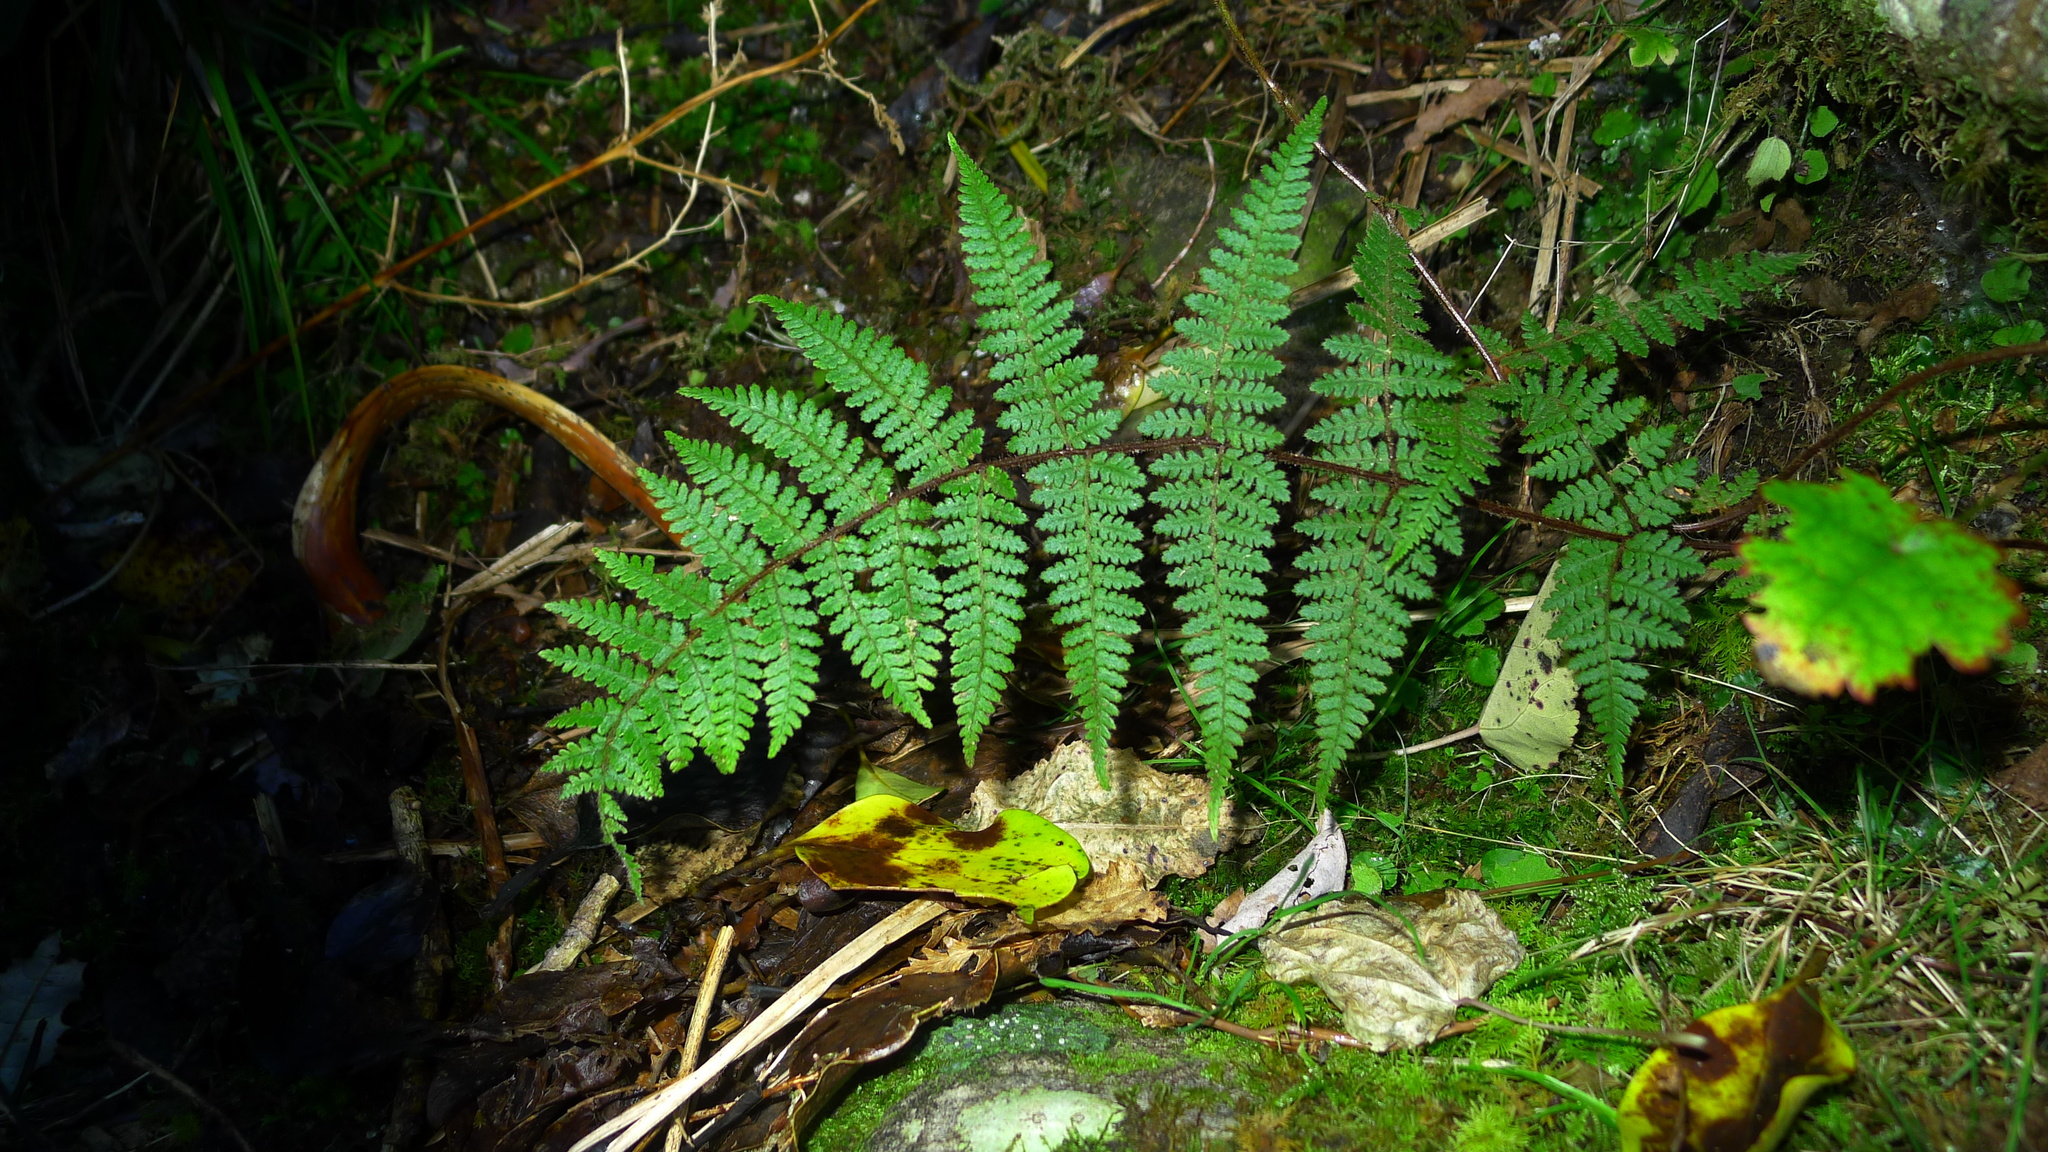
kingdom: Plantae
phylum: Tracheophyta
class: Polypodiopsida
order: Polypodiales
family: Dennstaedtiaceae
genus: Hypolepis
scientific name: Hypolepis rugosula
